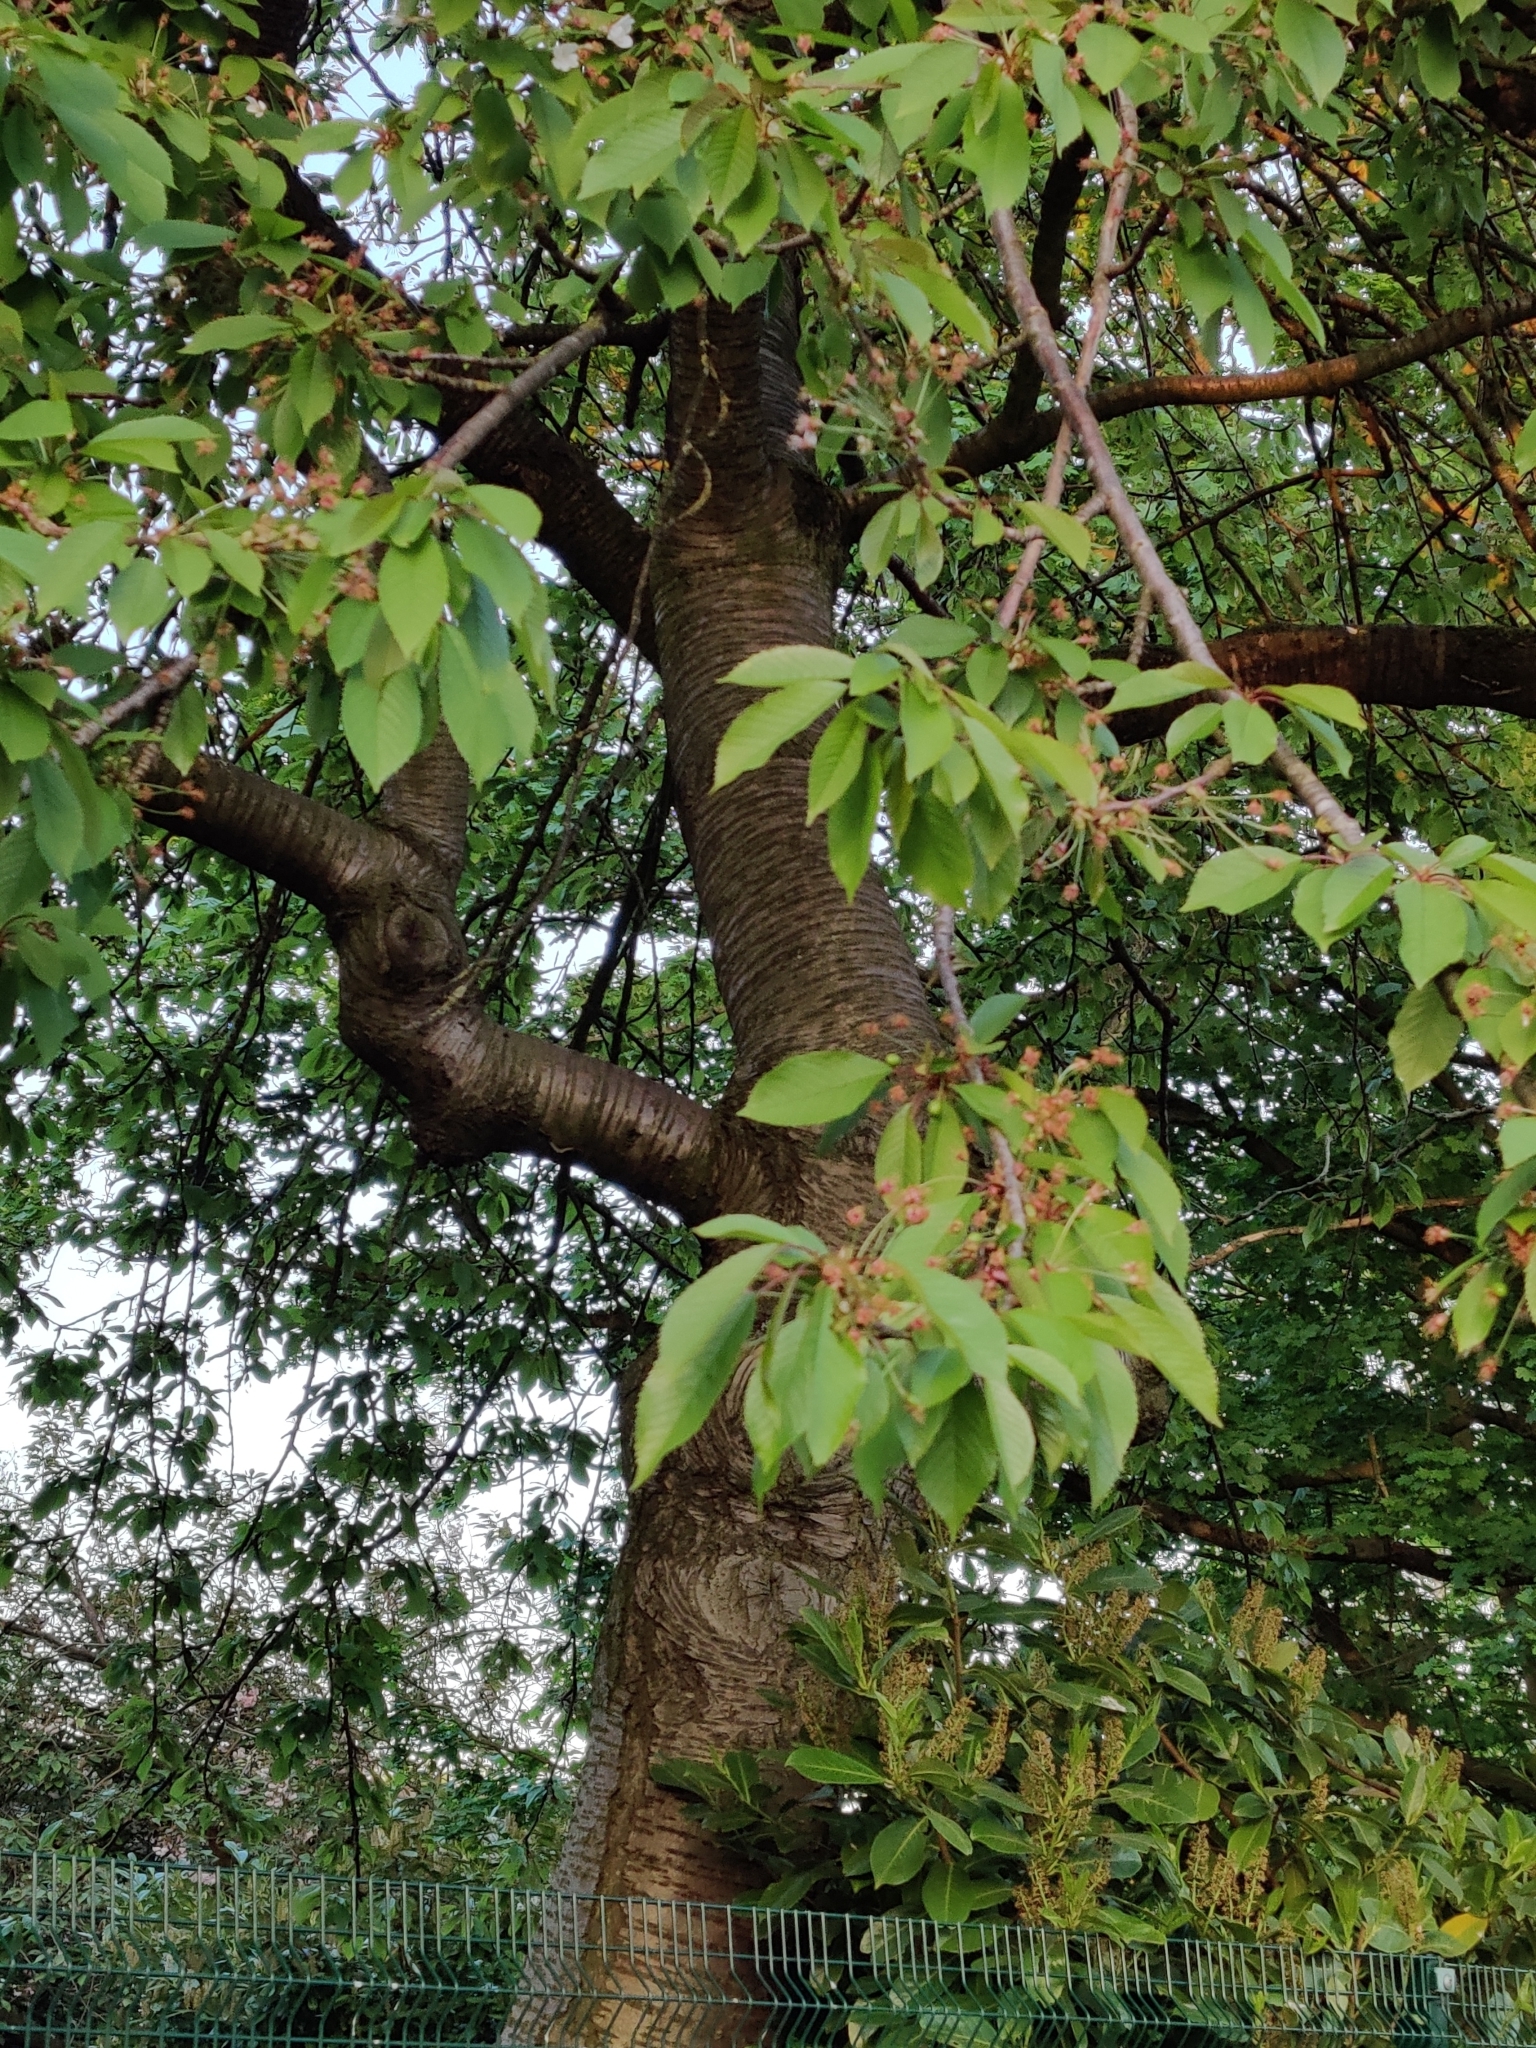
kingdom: Plantae
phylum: Tracheophyta
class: Magnoliopsida
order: Rosales
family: Rosaceae
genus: Prunus
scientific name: Prunus avium
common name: Sweet cherry
